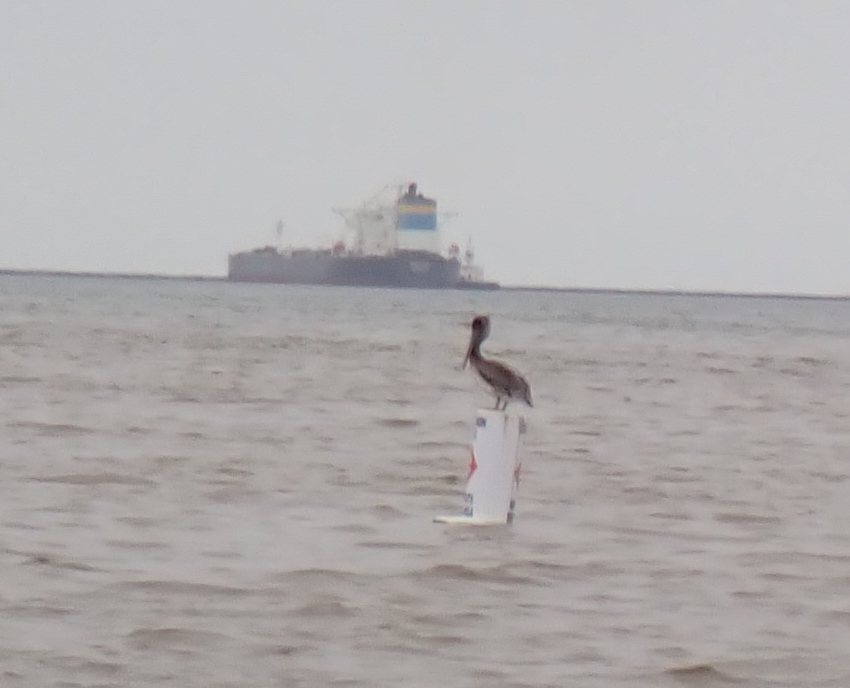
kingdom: Animalia
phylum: Chordata
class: Aves
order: Pelecaniformes
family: Pelecanidae
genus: Pelecanus
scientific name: Pelecanus occidentalis
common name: Brown pelican
